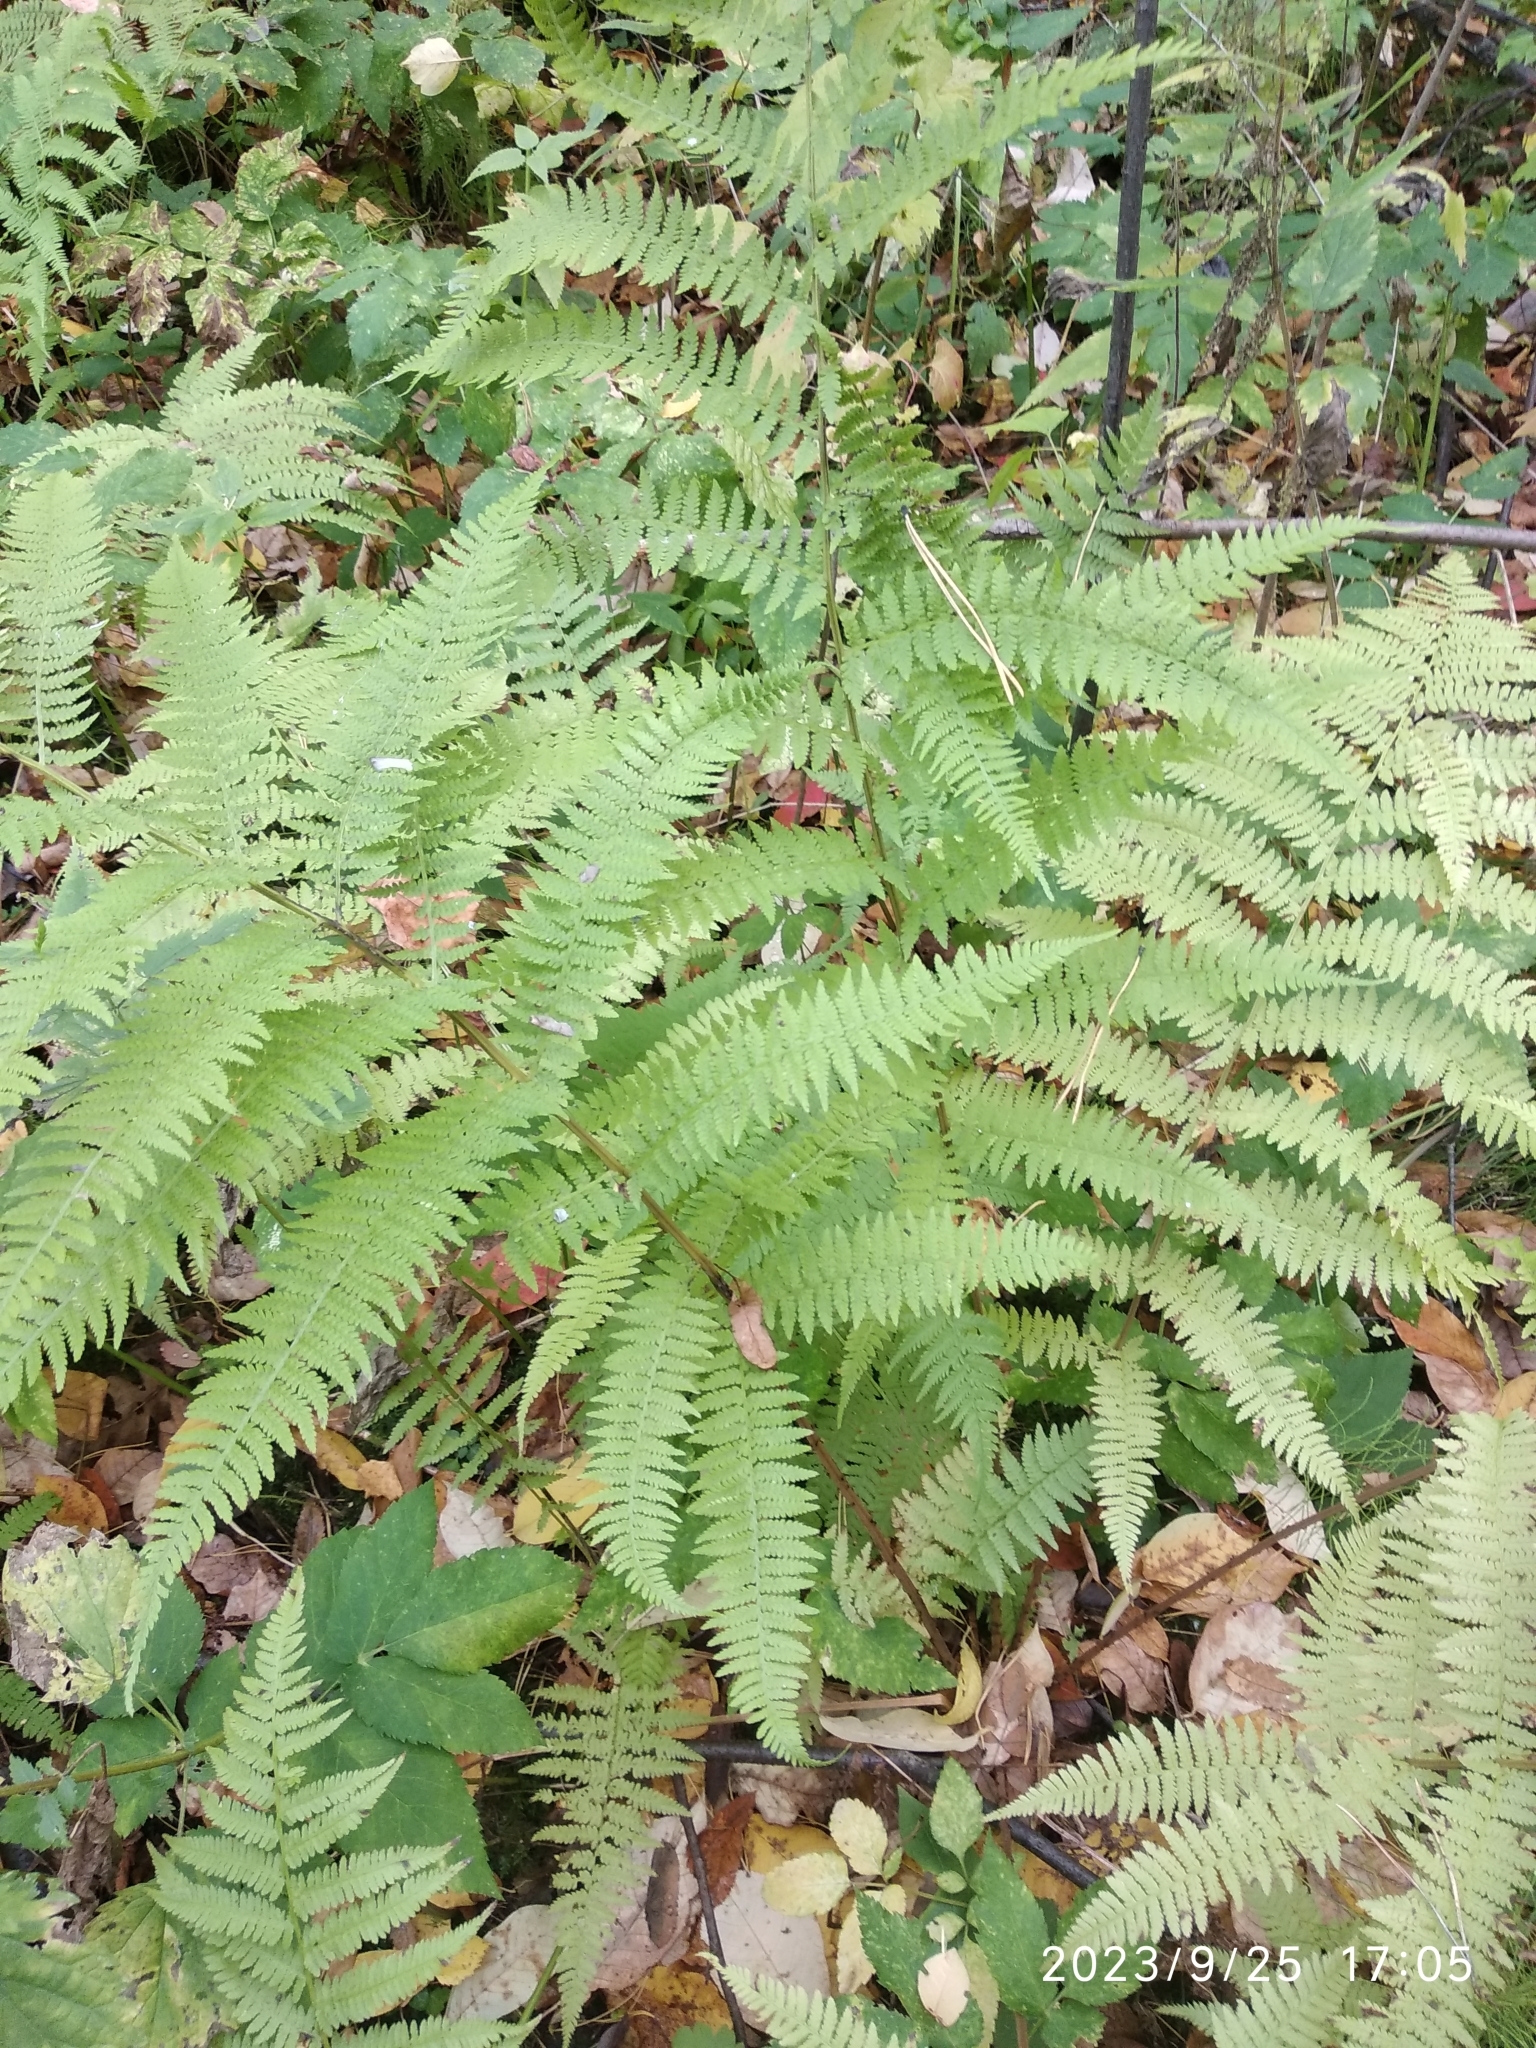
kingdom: Plantae
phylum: Tracheophyta
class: Polypodiopsida
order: Polypodiales
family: Athyriaceae
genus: Athyrium
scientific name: Athyrium filix-femina
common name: Lady fern
